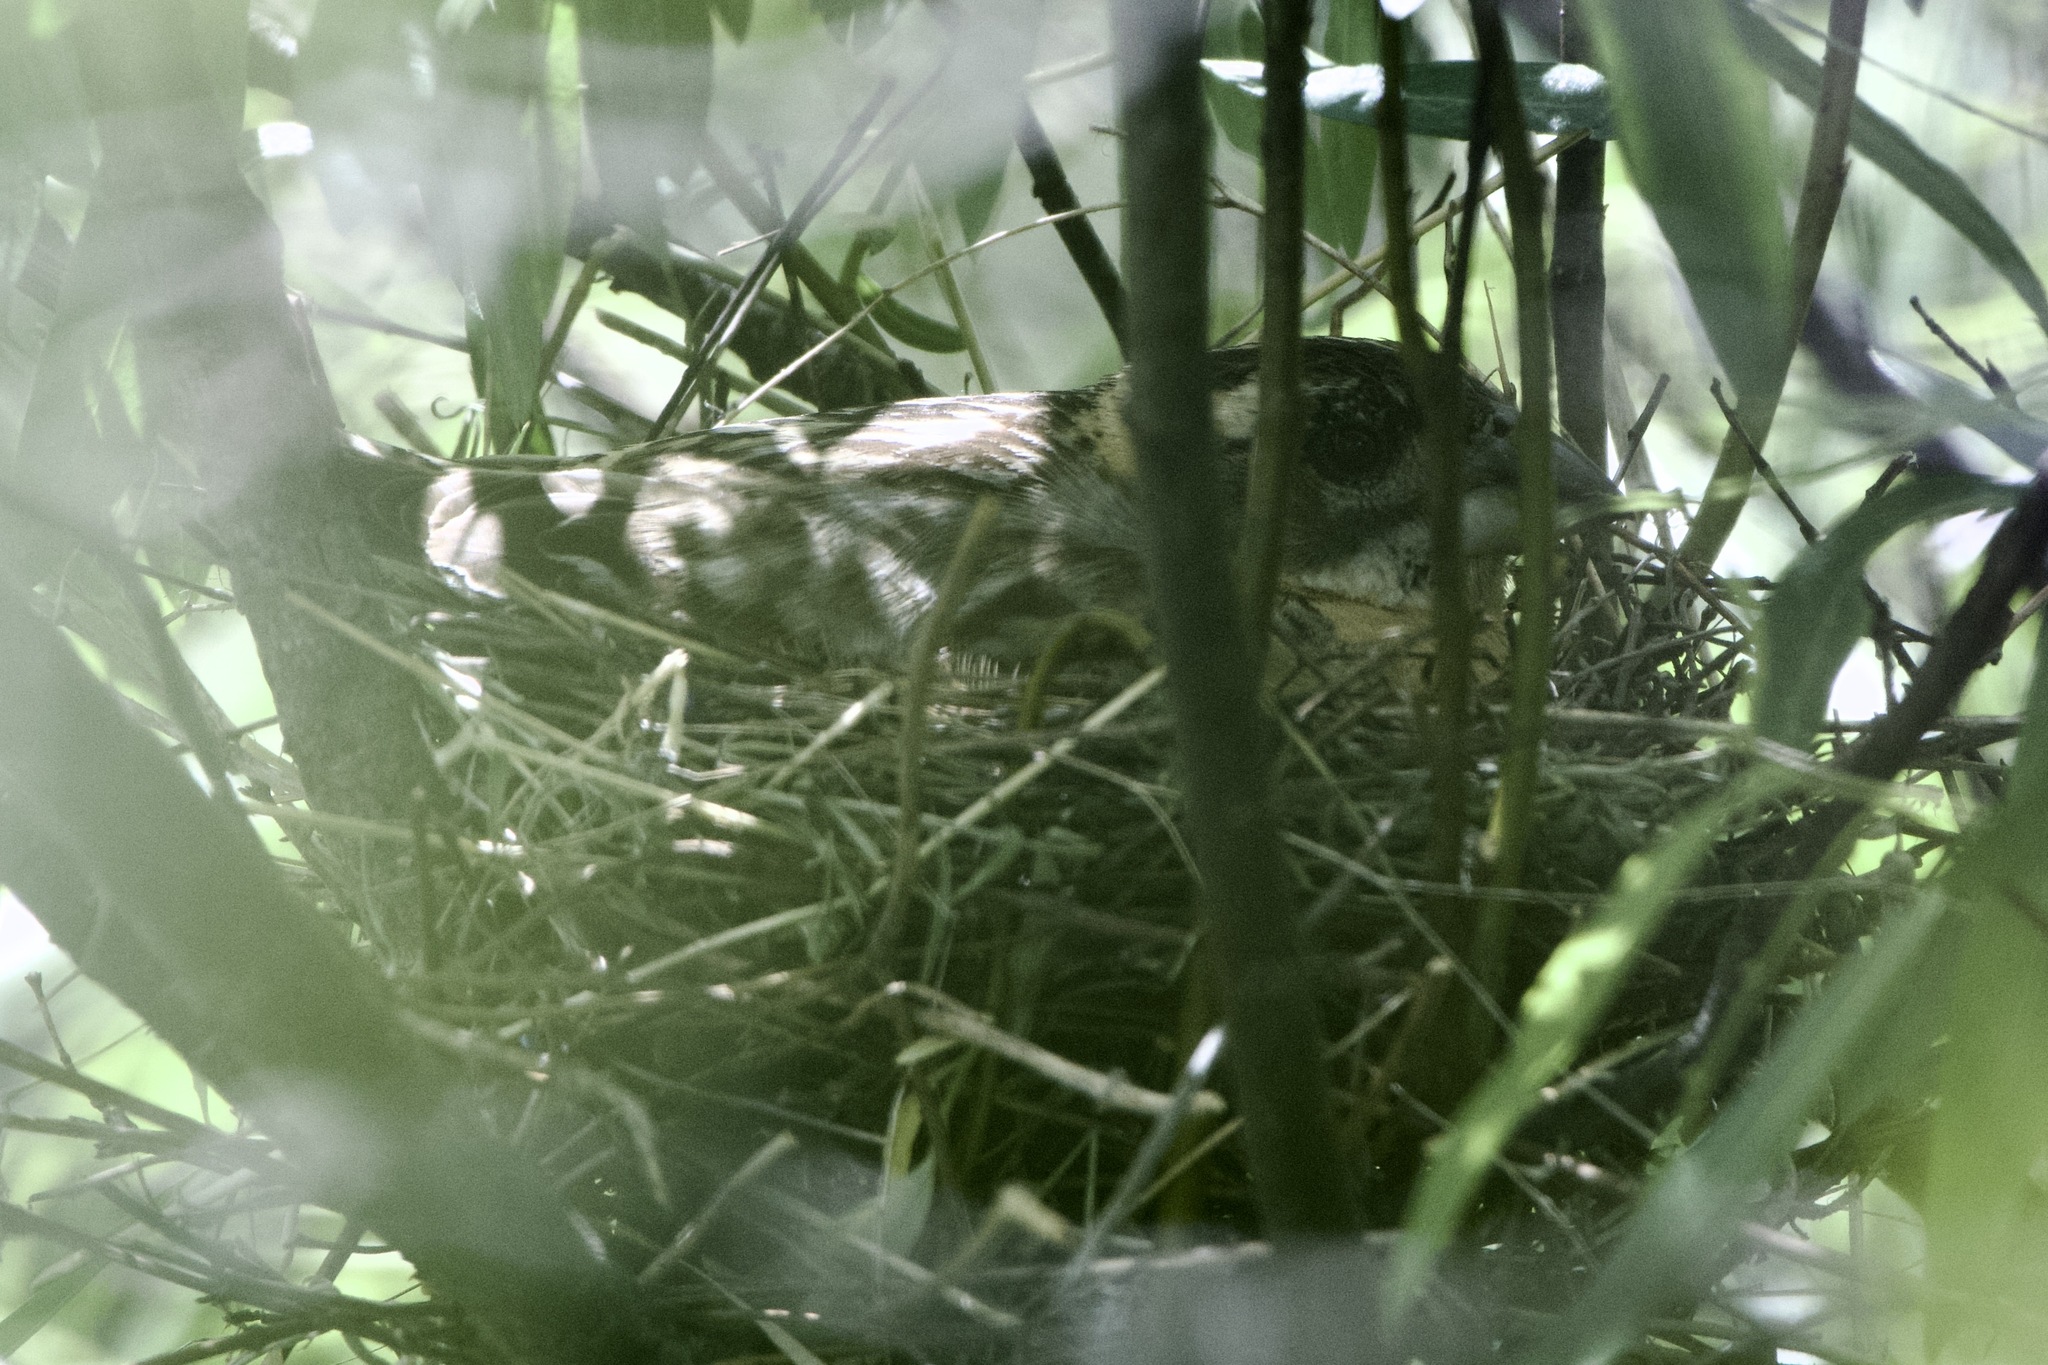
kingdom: Animalia
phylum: Chordata
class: Aves
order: Passeriformes
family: Cardinalidae
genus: Pheucticus
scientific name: Pheucticus melanocephalus
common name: Black-headed grosbeak
